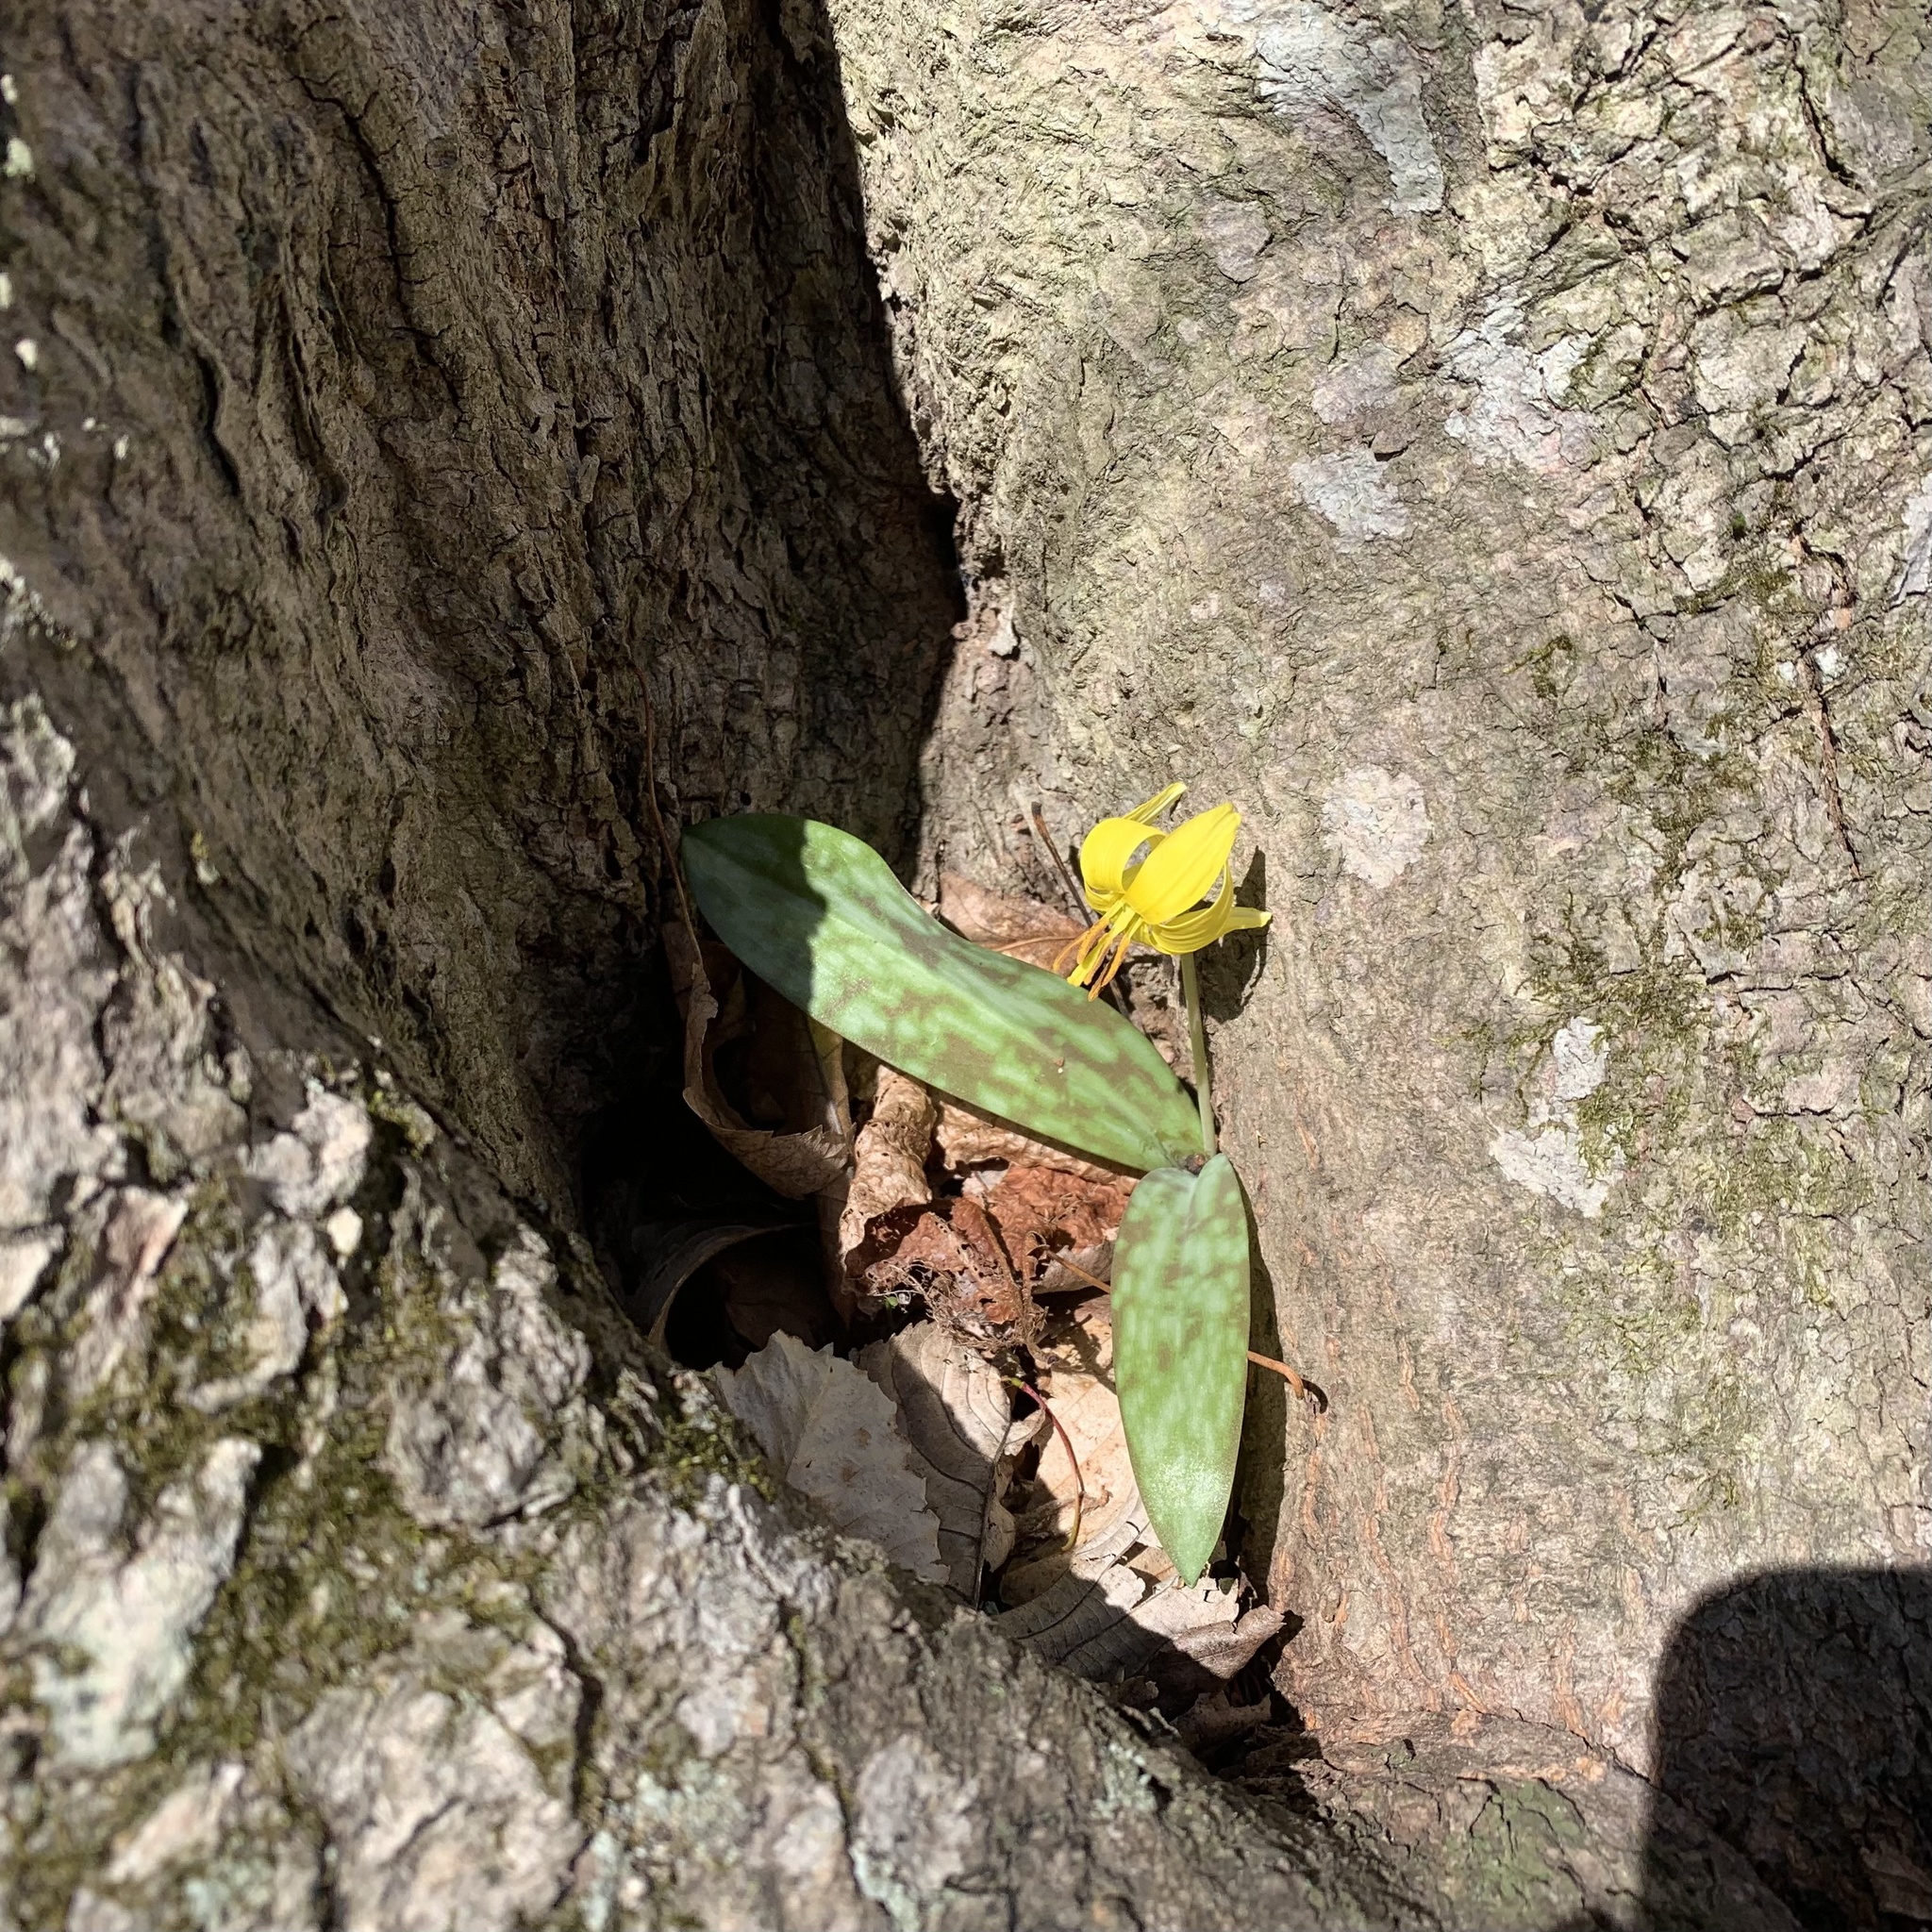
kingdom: Plantae
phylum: Tracheophyta
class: Liliopsida
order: Liliales
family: Liliaceae
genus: Erythronium
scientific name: Erythronium americanum
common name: Yellow adder's-tongue
